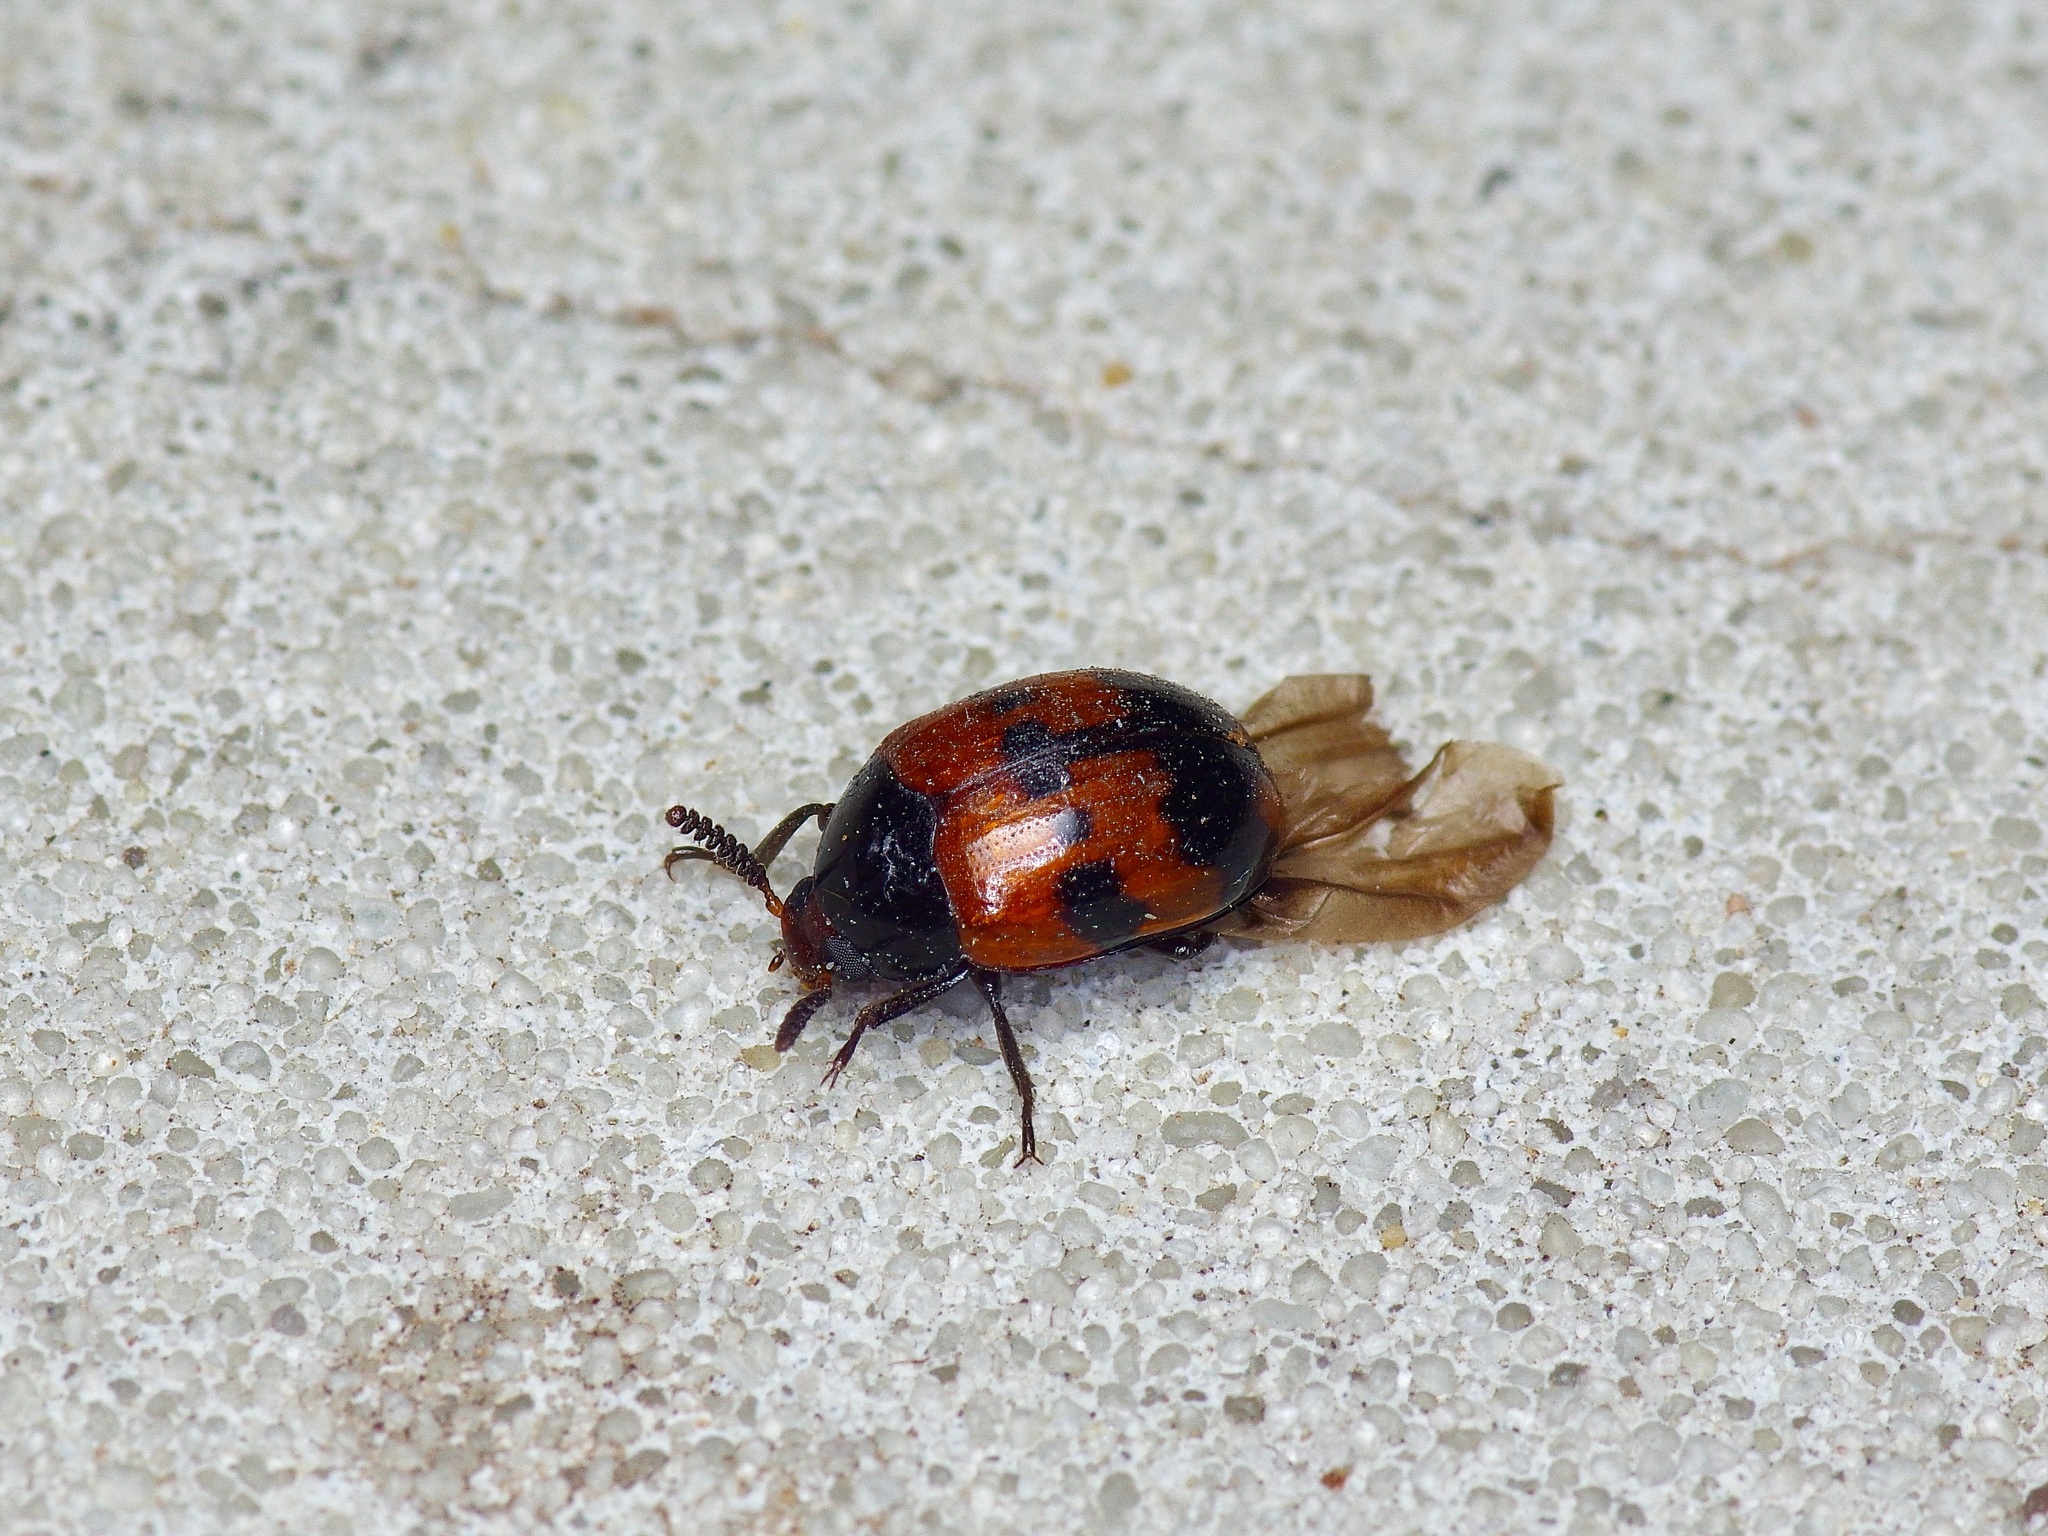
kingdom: Animalia
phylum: Arthropoda
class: Insecta
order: Coleoptera
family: Tenebrionidae
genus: Diaperis
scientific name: Diaperis nigronotata
